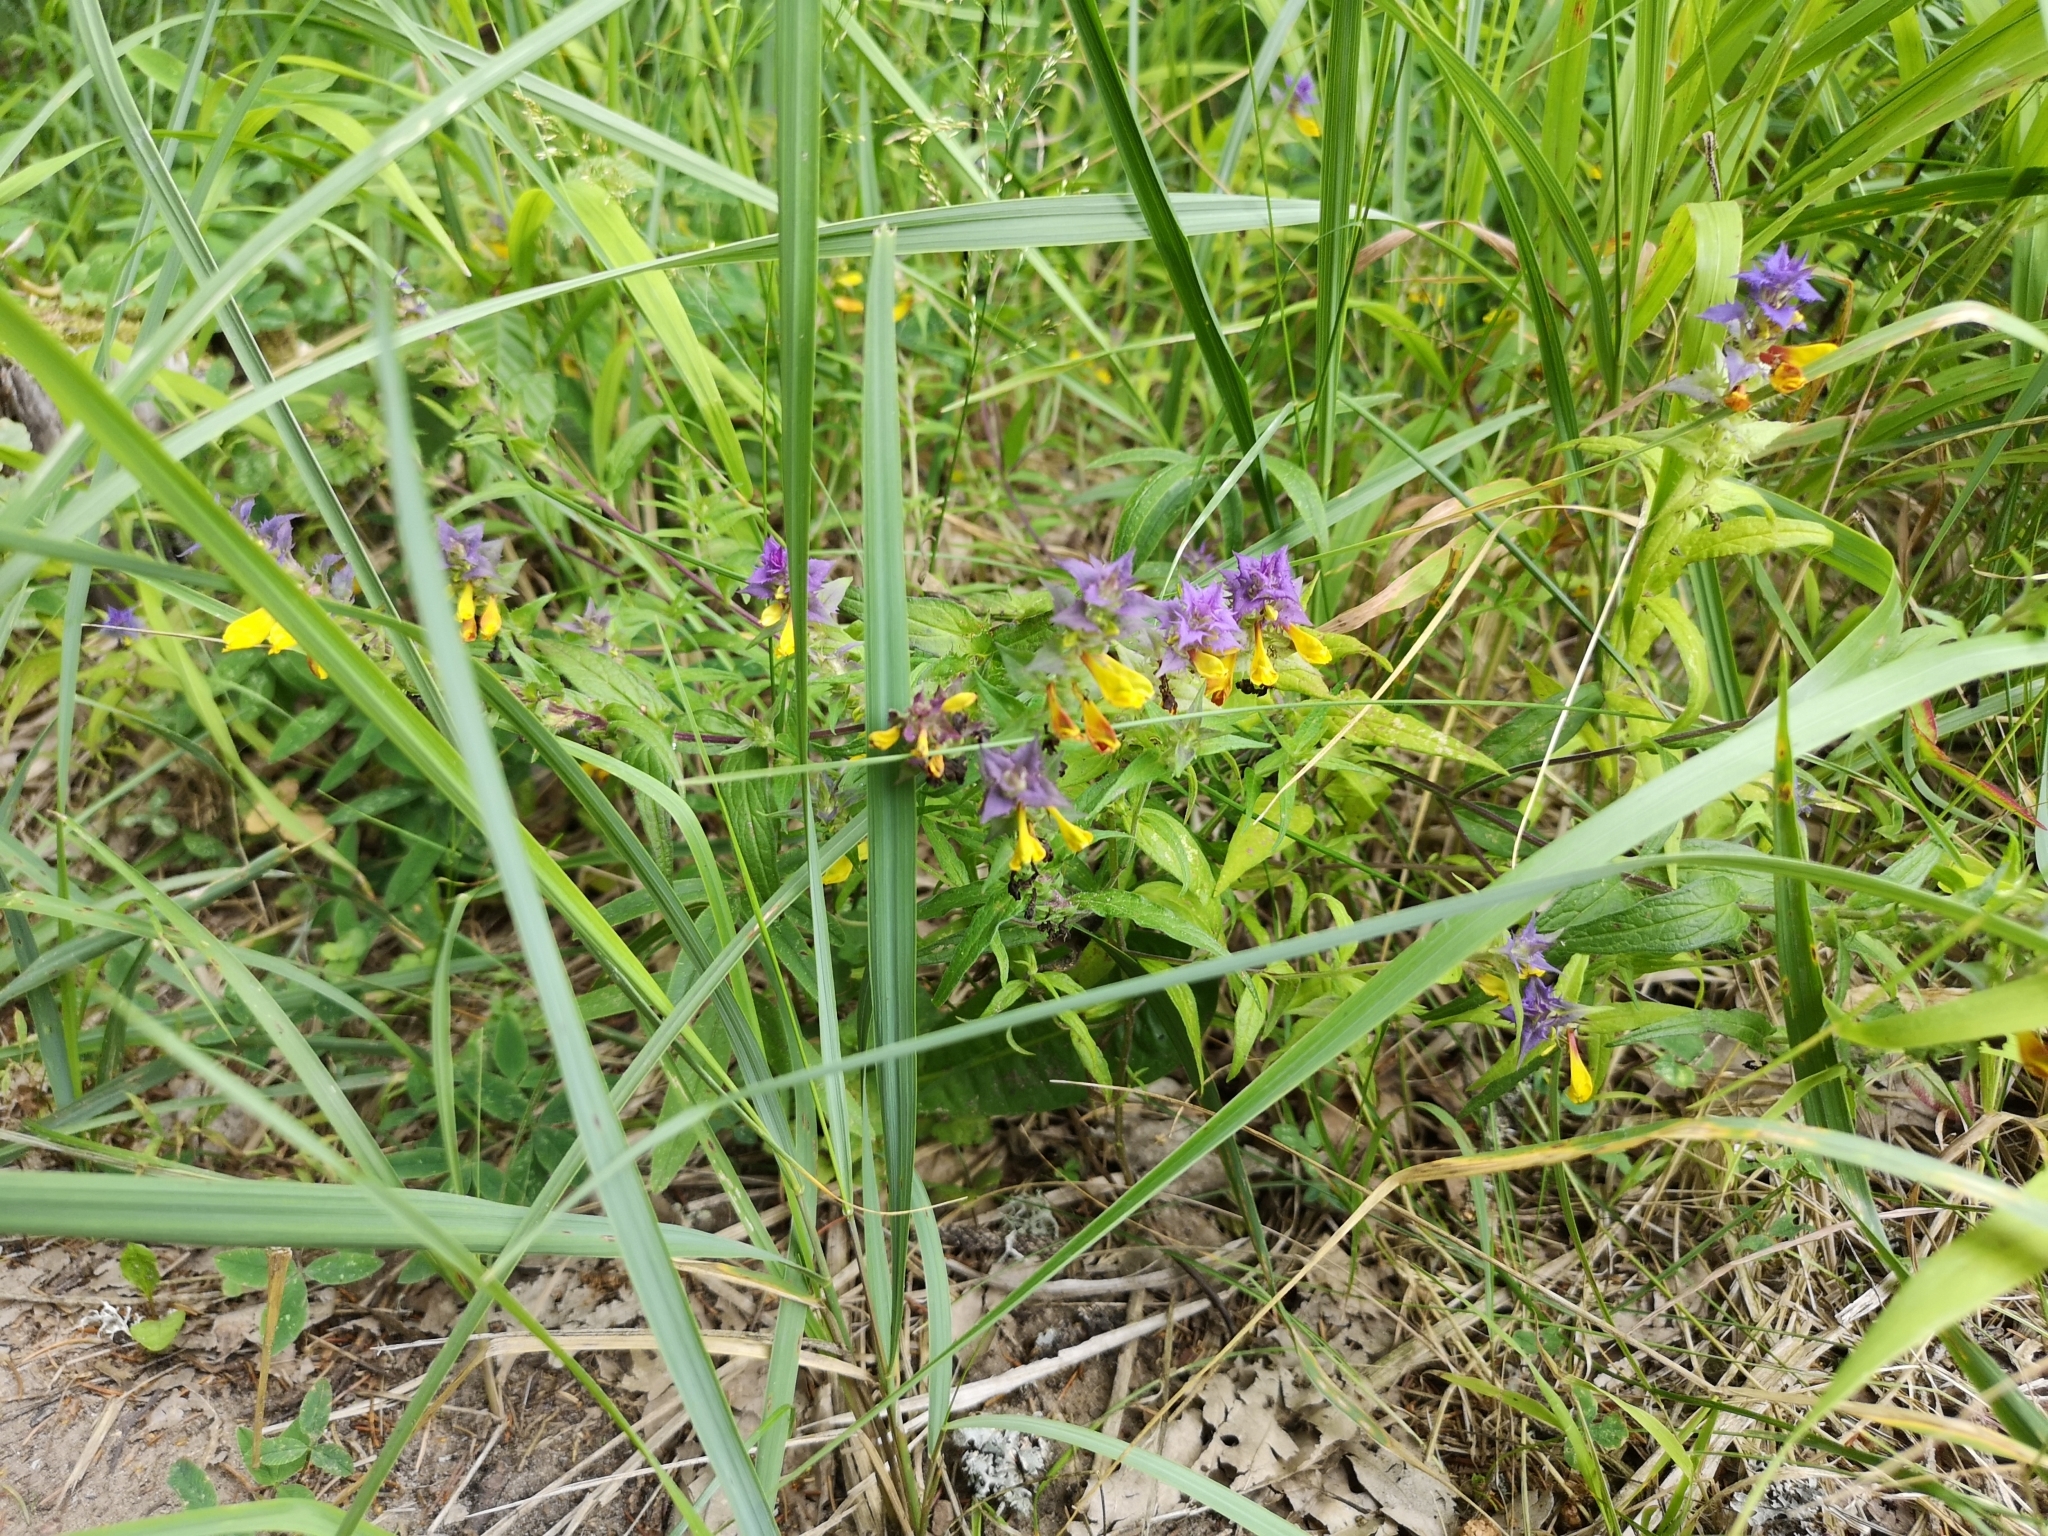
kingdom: Plantae
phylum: Tracheophyta
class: Magnoliopsida
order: Lamiales
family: Orobanchaceae
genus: Melampyrum
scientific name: Melampyrum nemorosum
